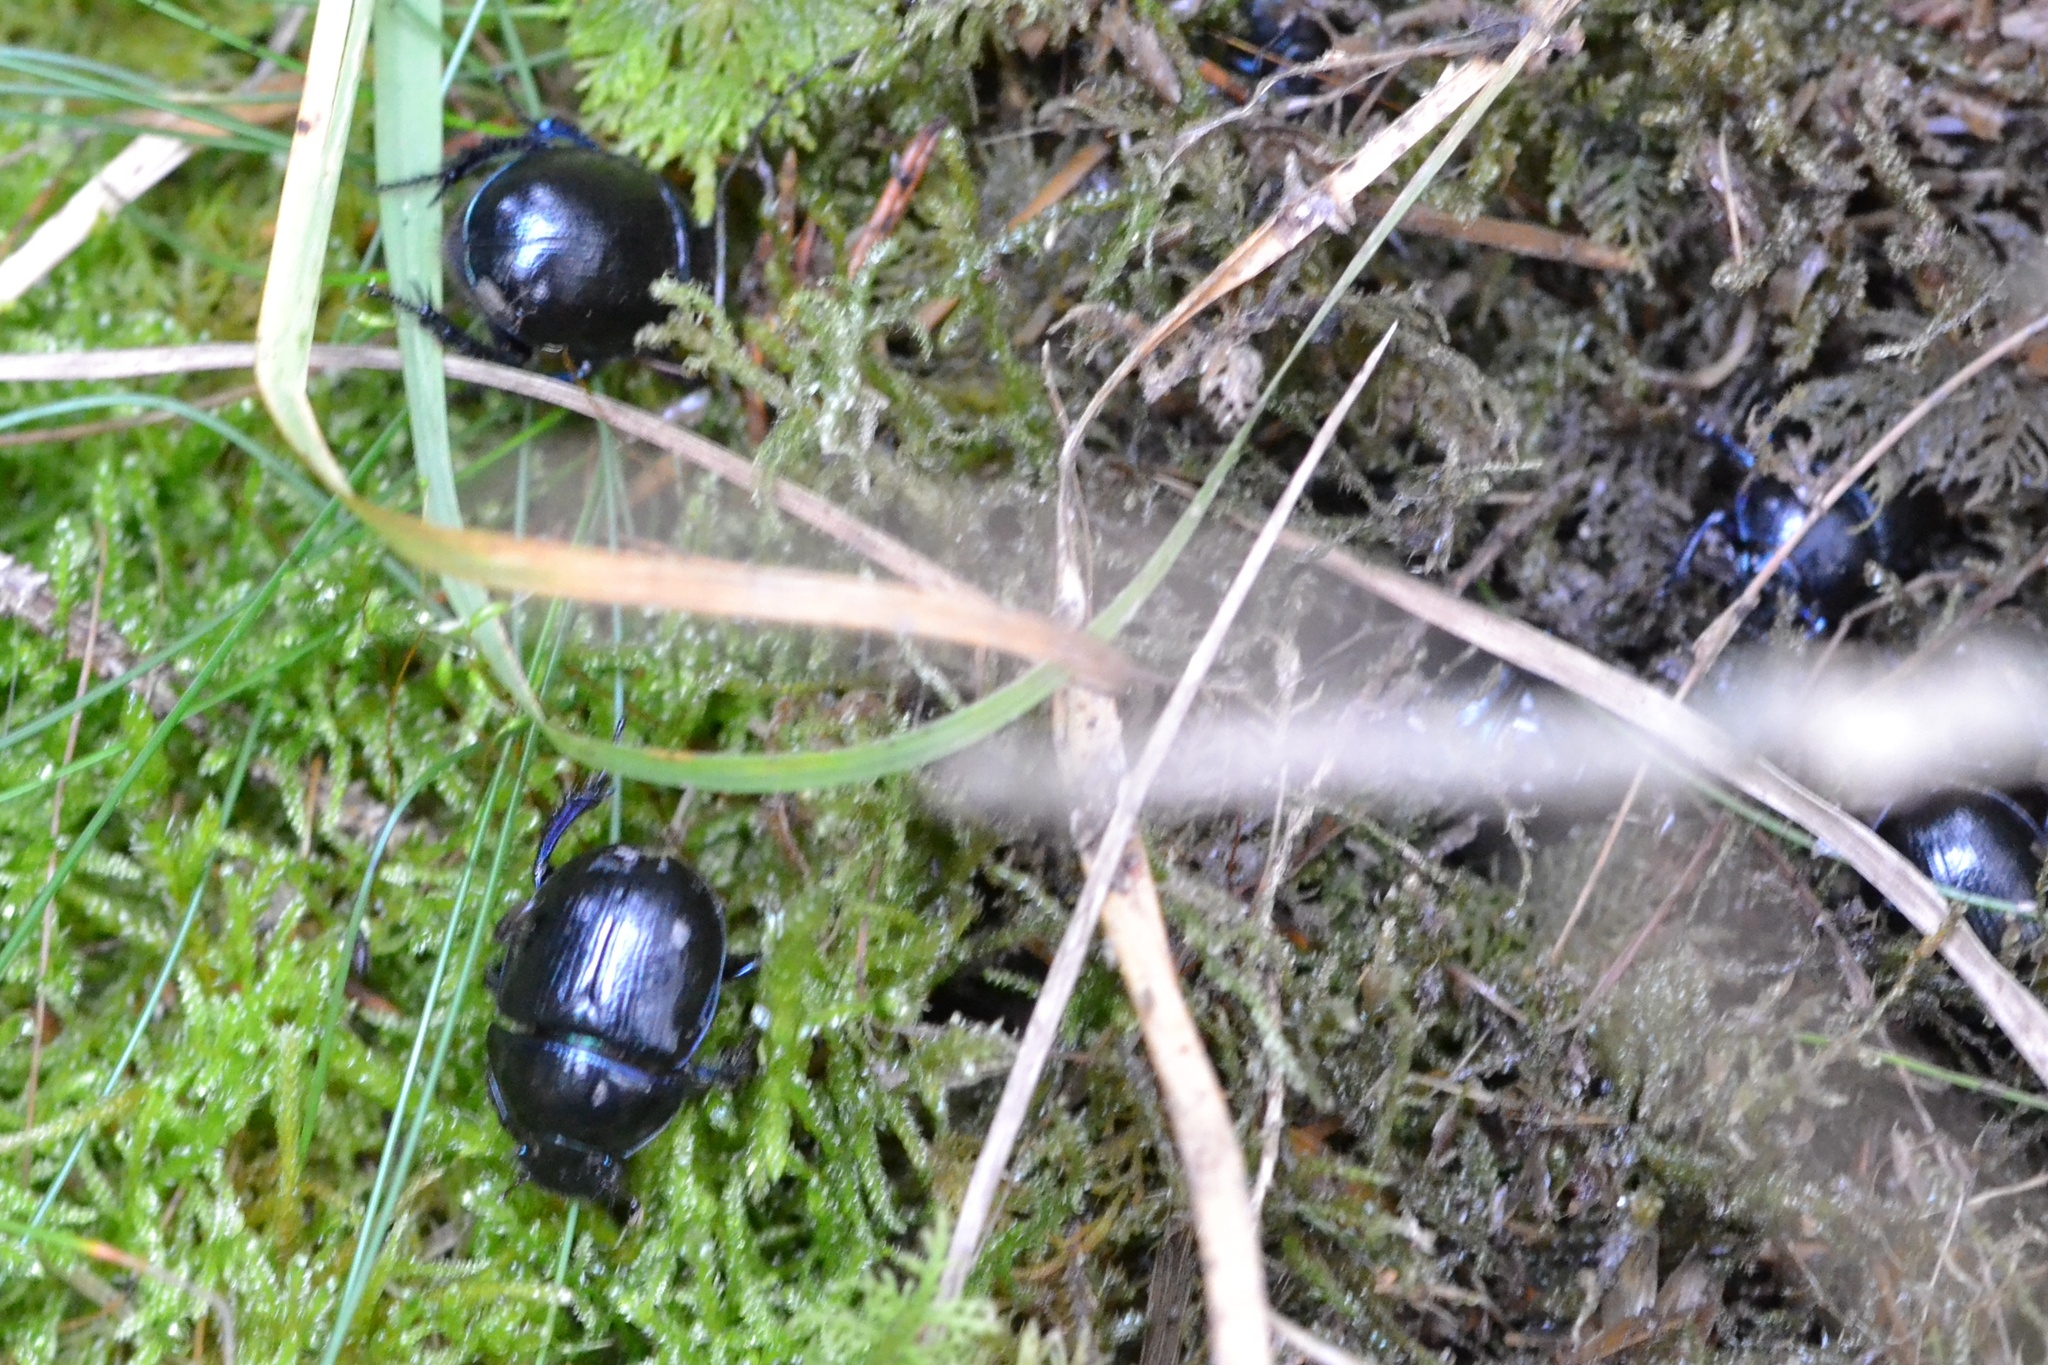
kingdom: Animalia
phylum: Arthropoda
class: Insecta
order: Coleoptera
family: Geotrupidae
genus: Anoplotrupes
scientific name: Anoplotrupes stercorosus
